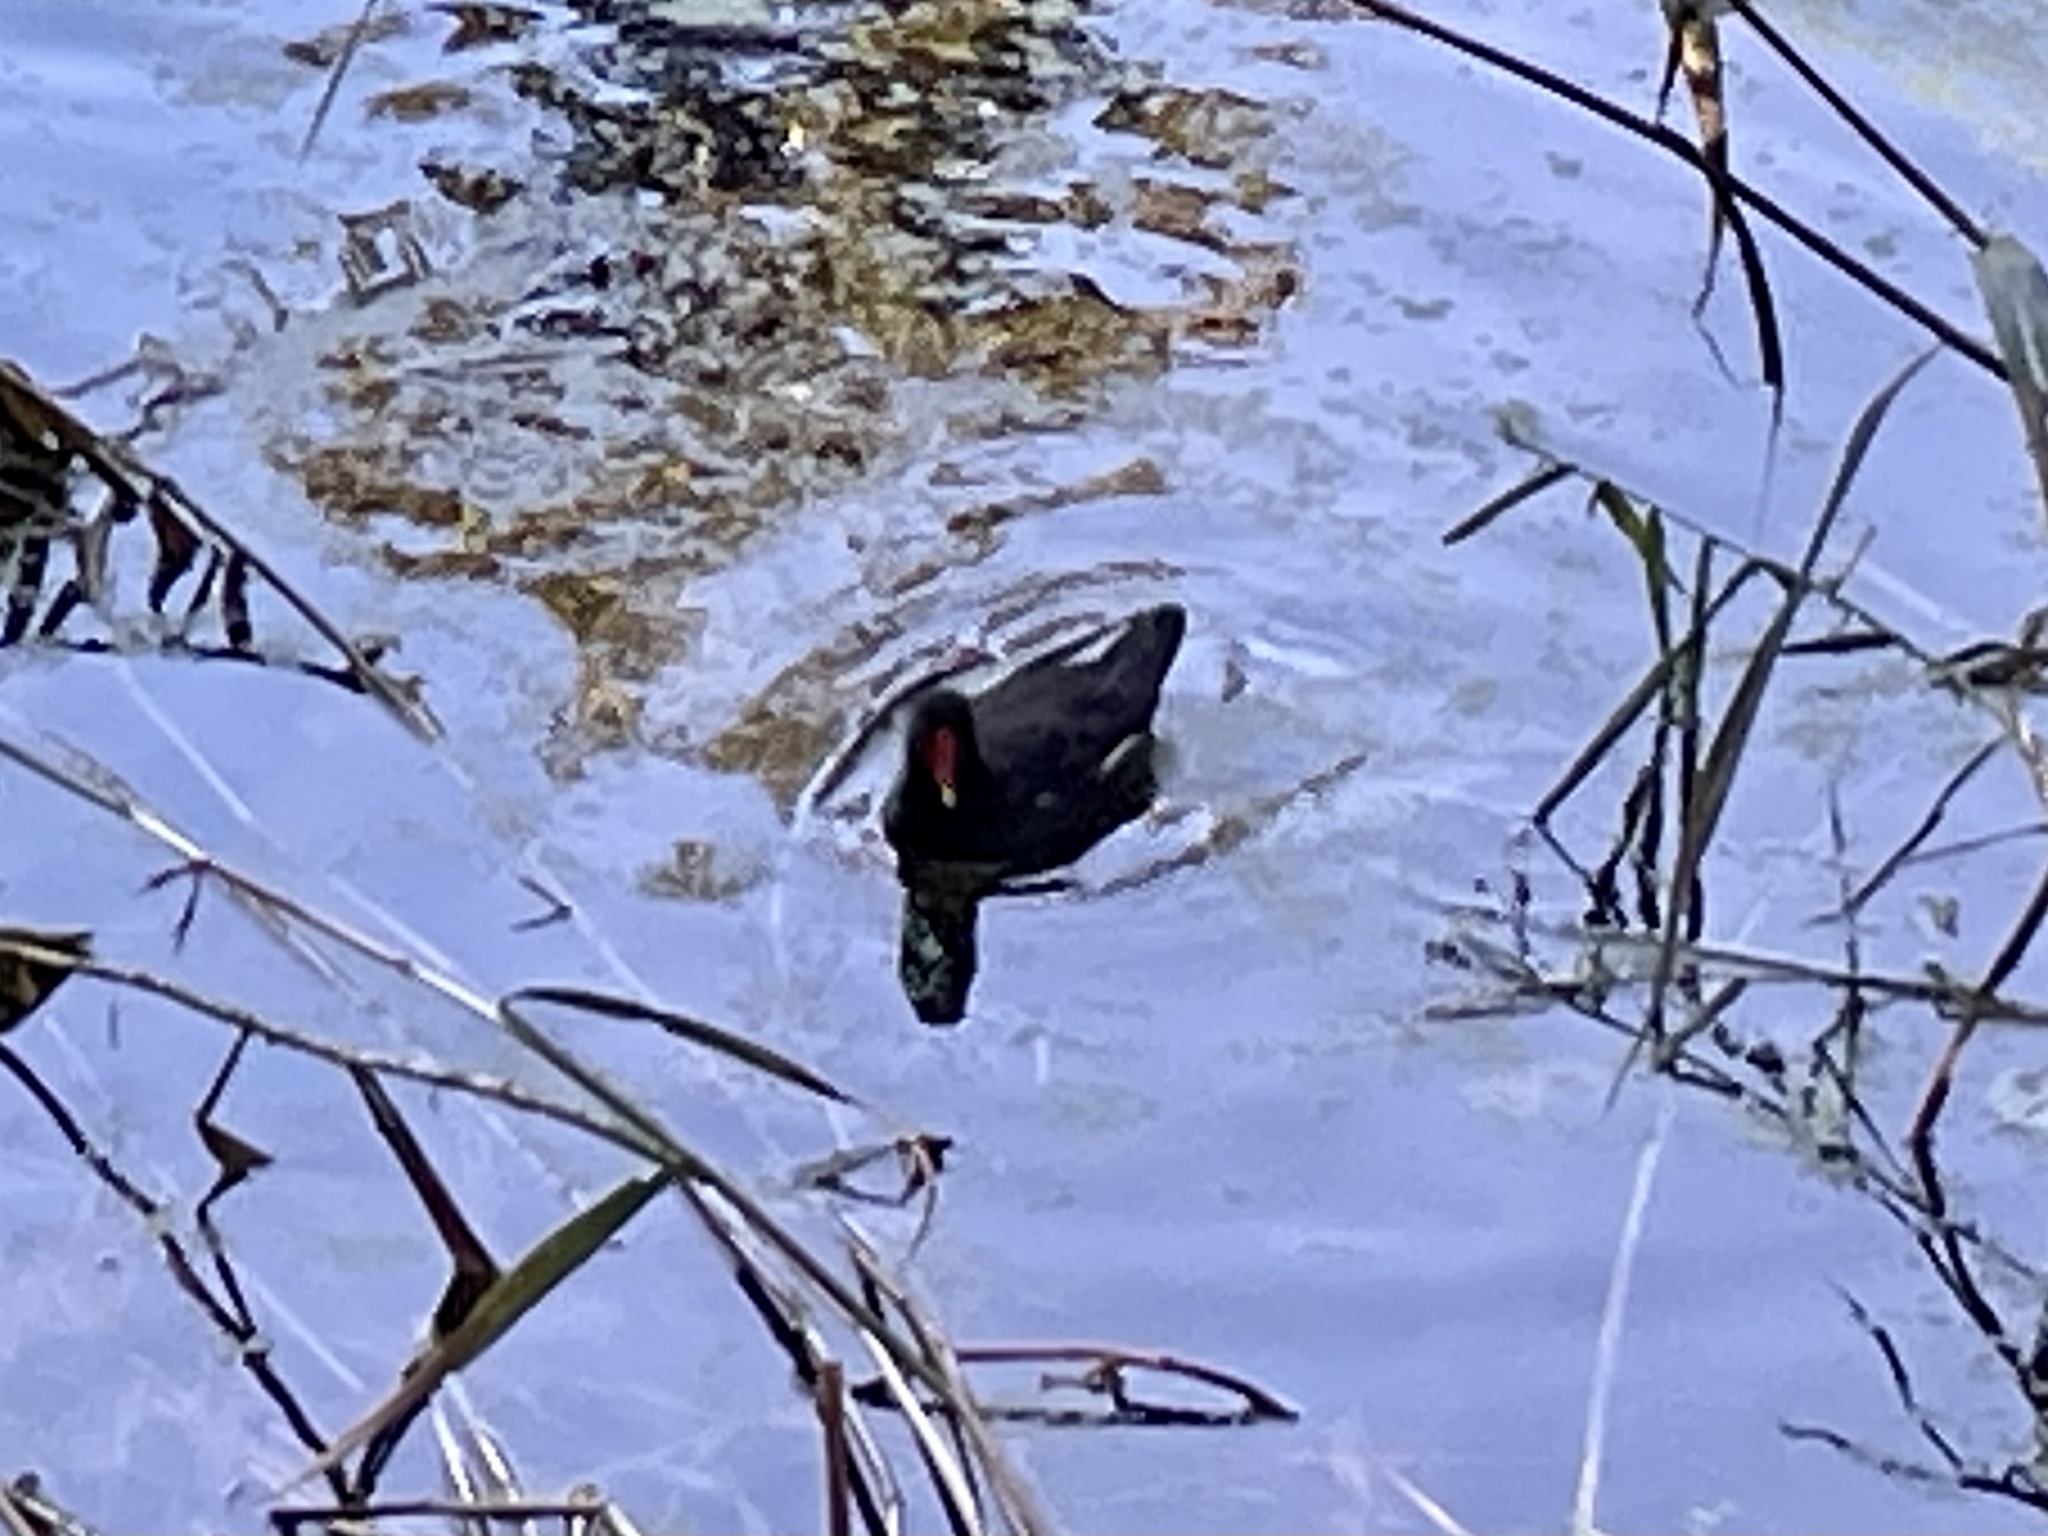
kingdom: Animalia
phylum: Chordata
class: Aves
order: Gruiformes
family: Rallidae
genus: Gallinula
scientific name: Gallinula chloropus
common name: Common moorhen
